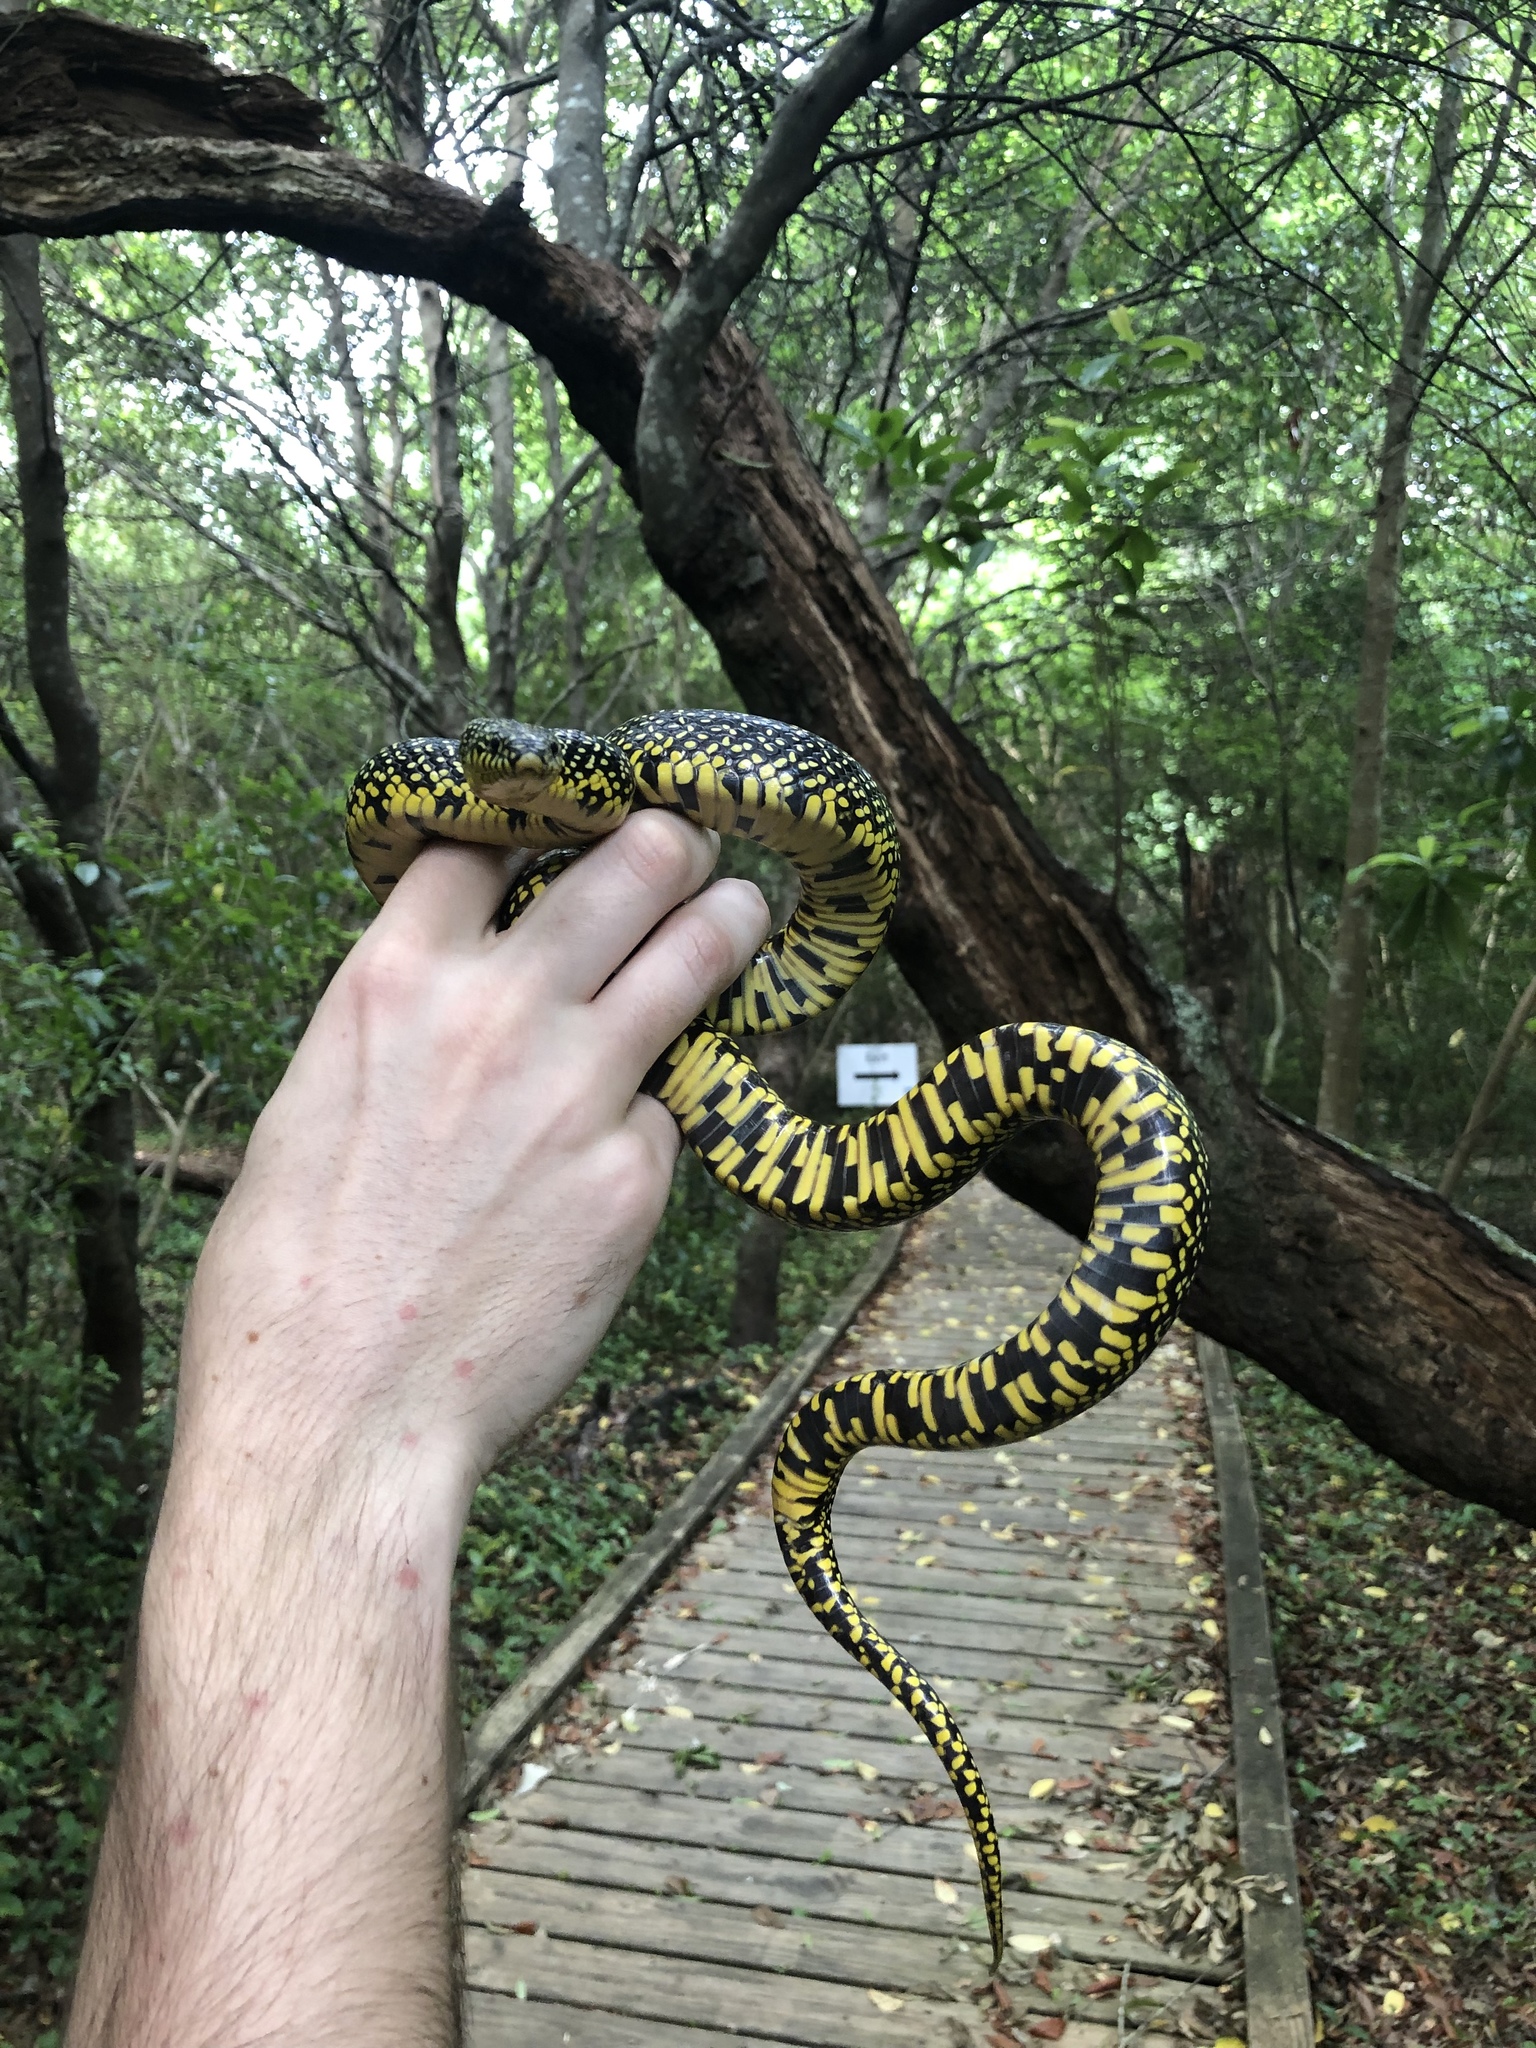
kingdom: Animalia
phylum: Chordata
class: Squamata
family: Colubridae
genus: Lampropeltis
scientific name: Lampropeltis holbrooki
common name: Speckled kingsnake
